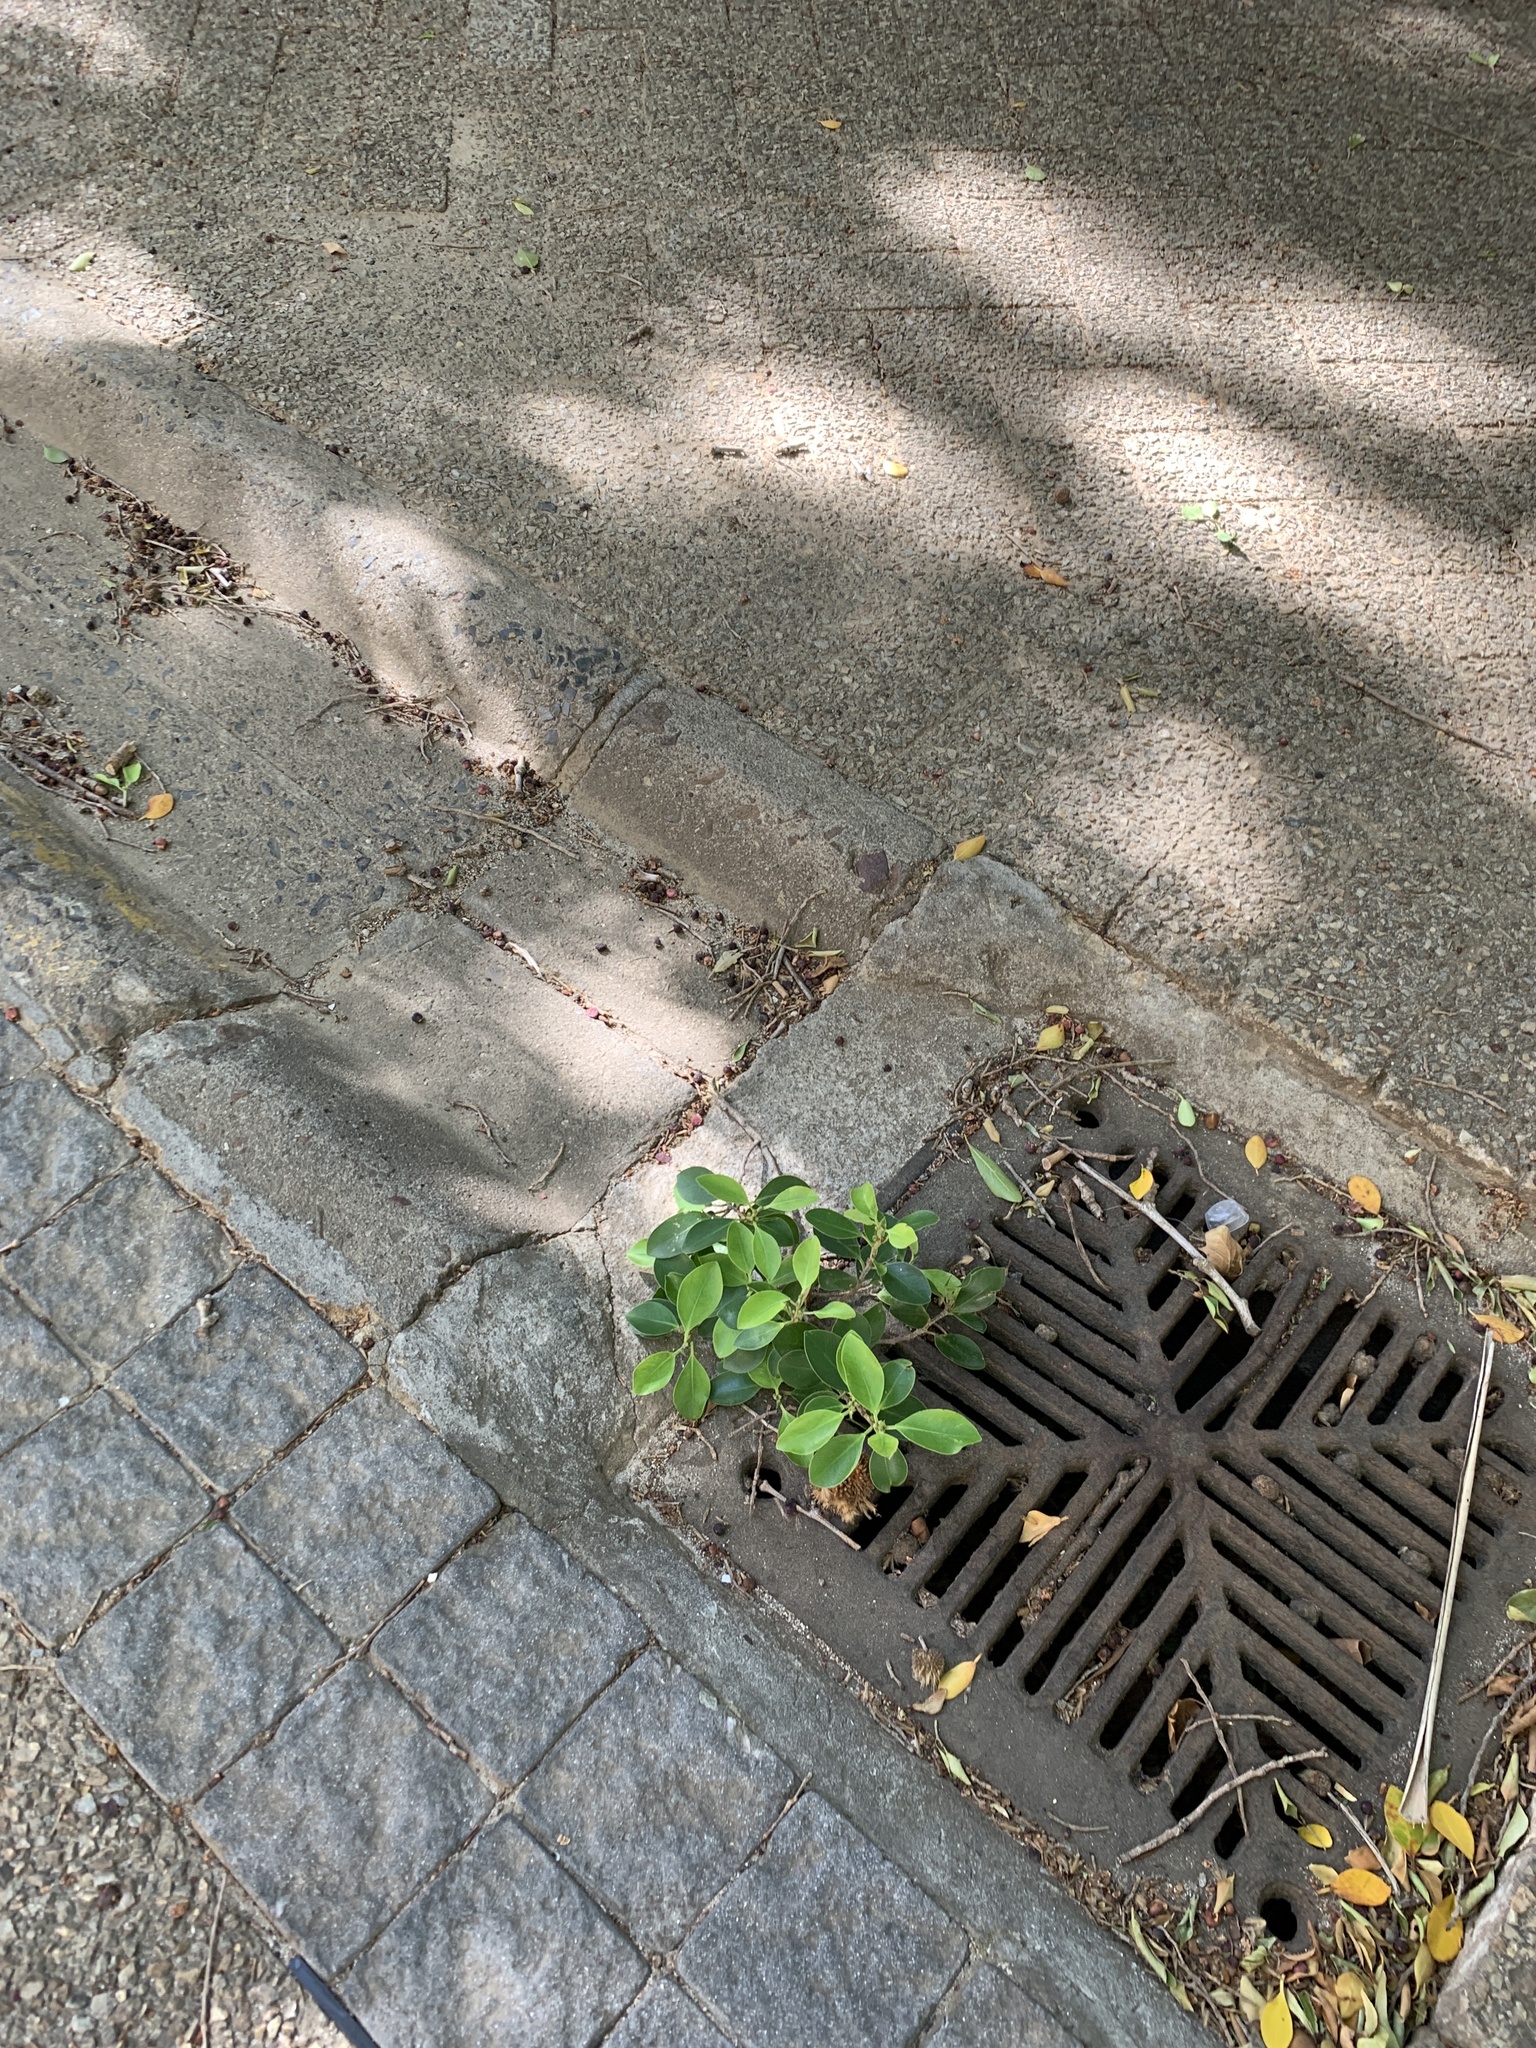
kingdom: Plantae
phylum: Tracheophyta
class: Magnoliopsida
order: Rosales
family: Moraceae
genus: Ficus
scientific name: Ficus microcarpa
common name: Chinese banyan
